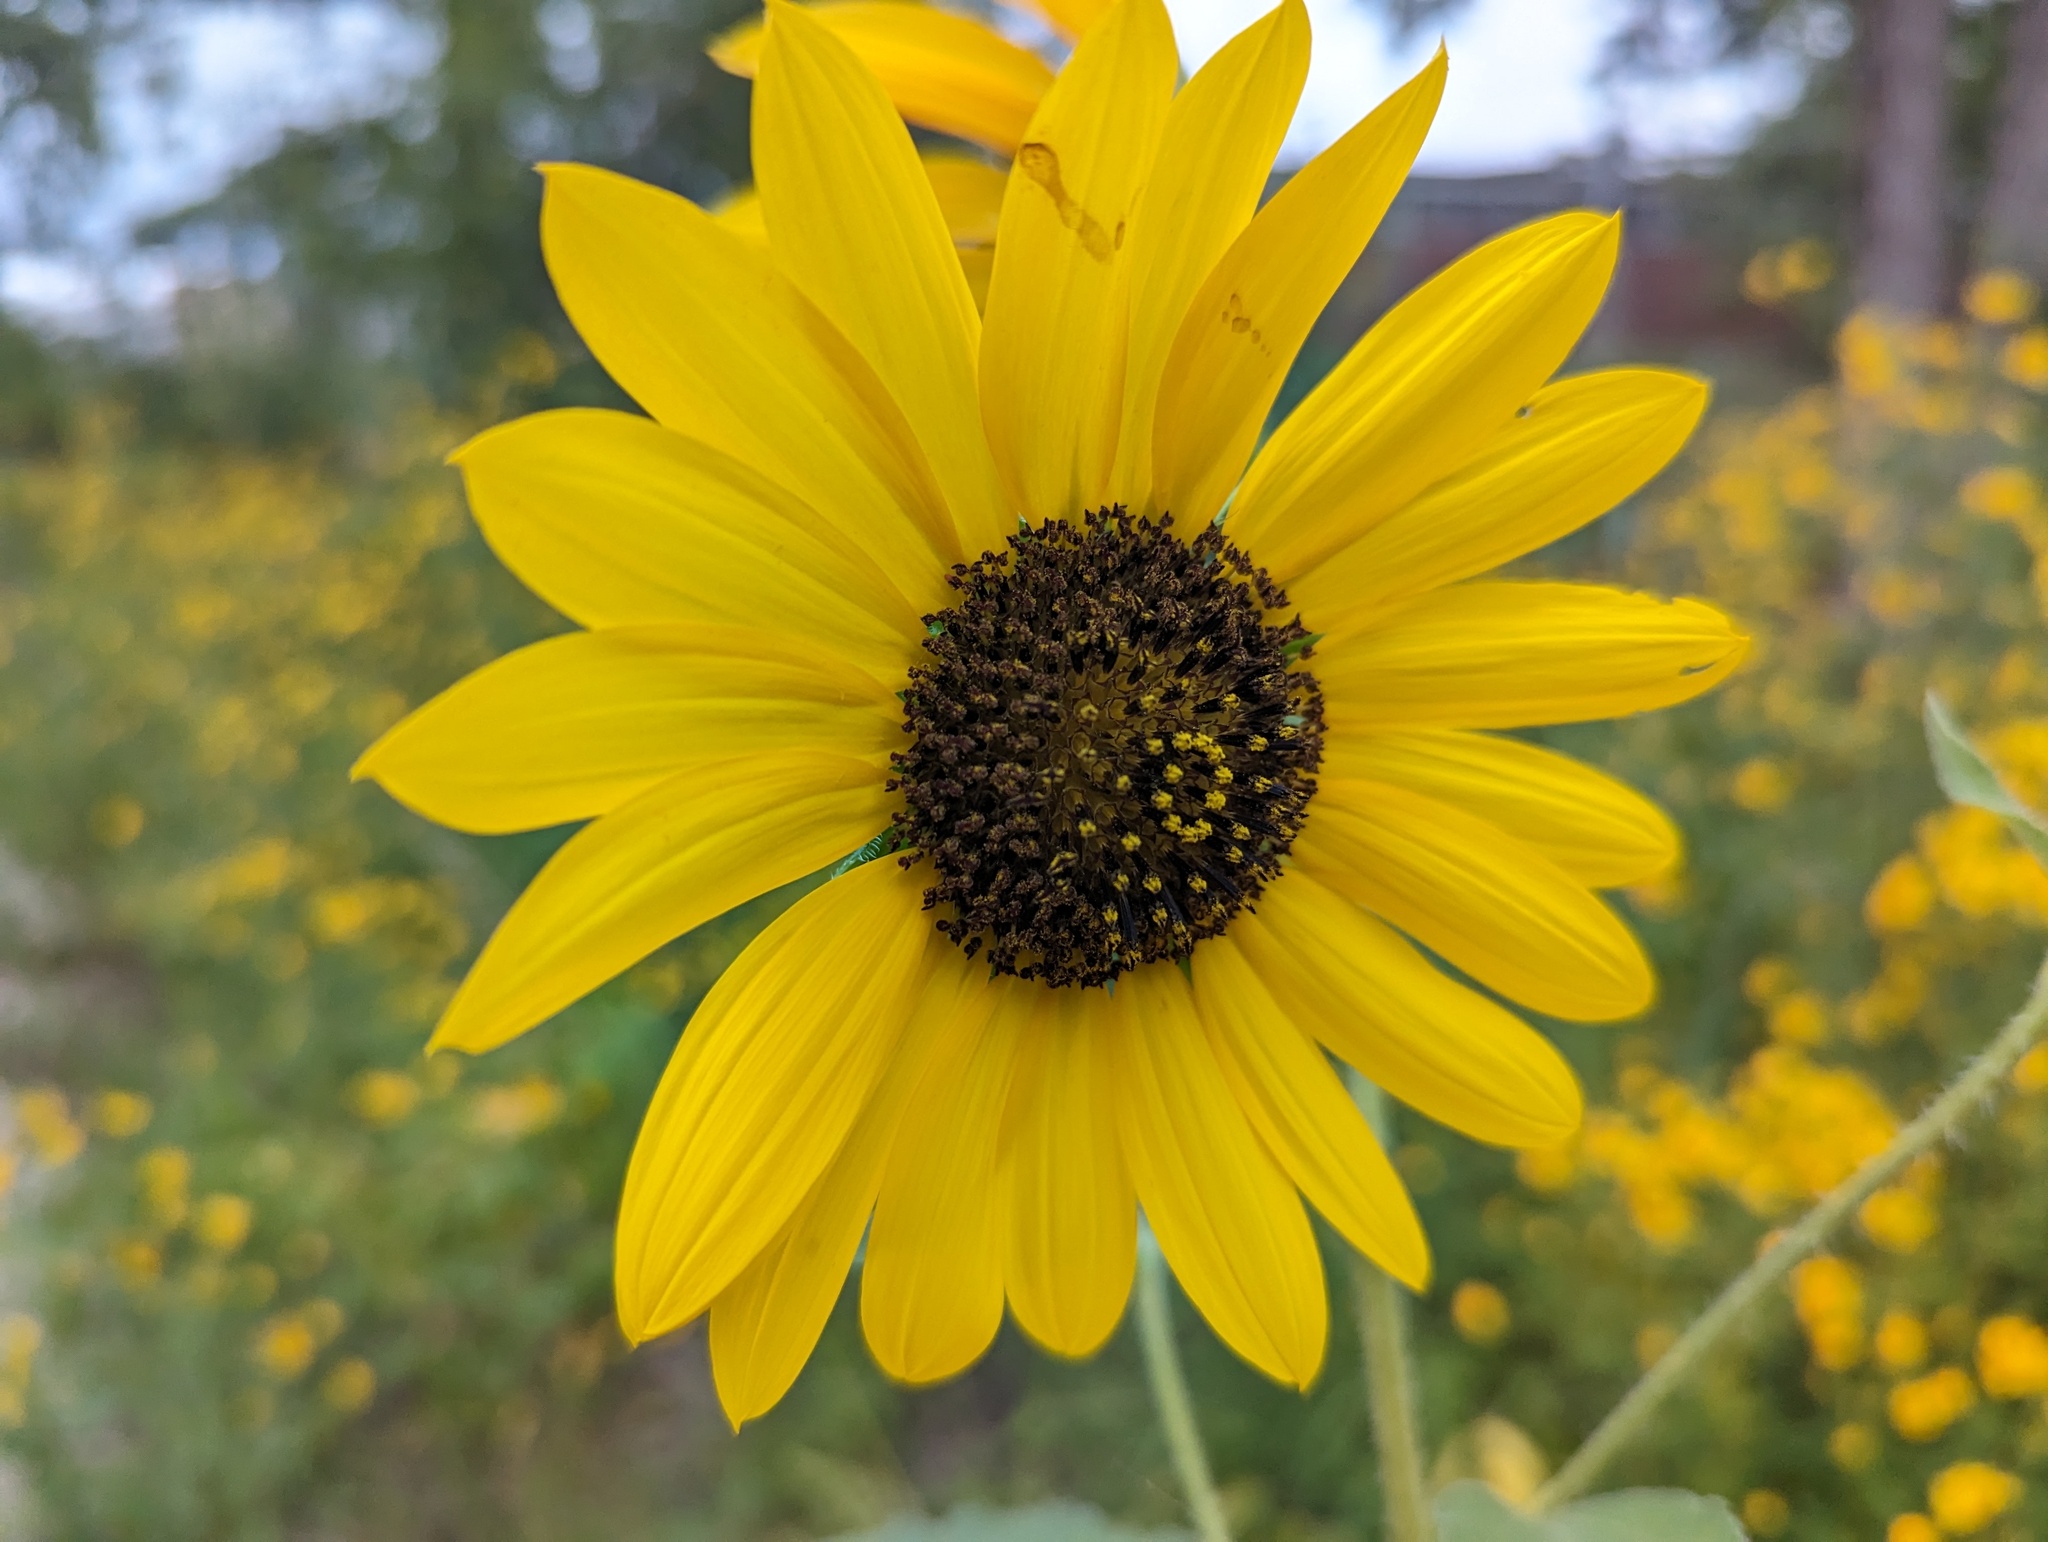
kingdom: Plantae
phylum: Tracheophyta
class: Magnoliopsida
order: Asterales
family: Asteraceae
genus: Helianthus
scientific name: Helianthus annuus
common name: Sunflower
